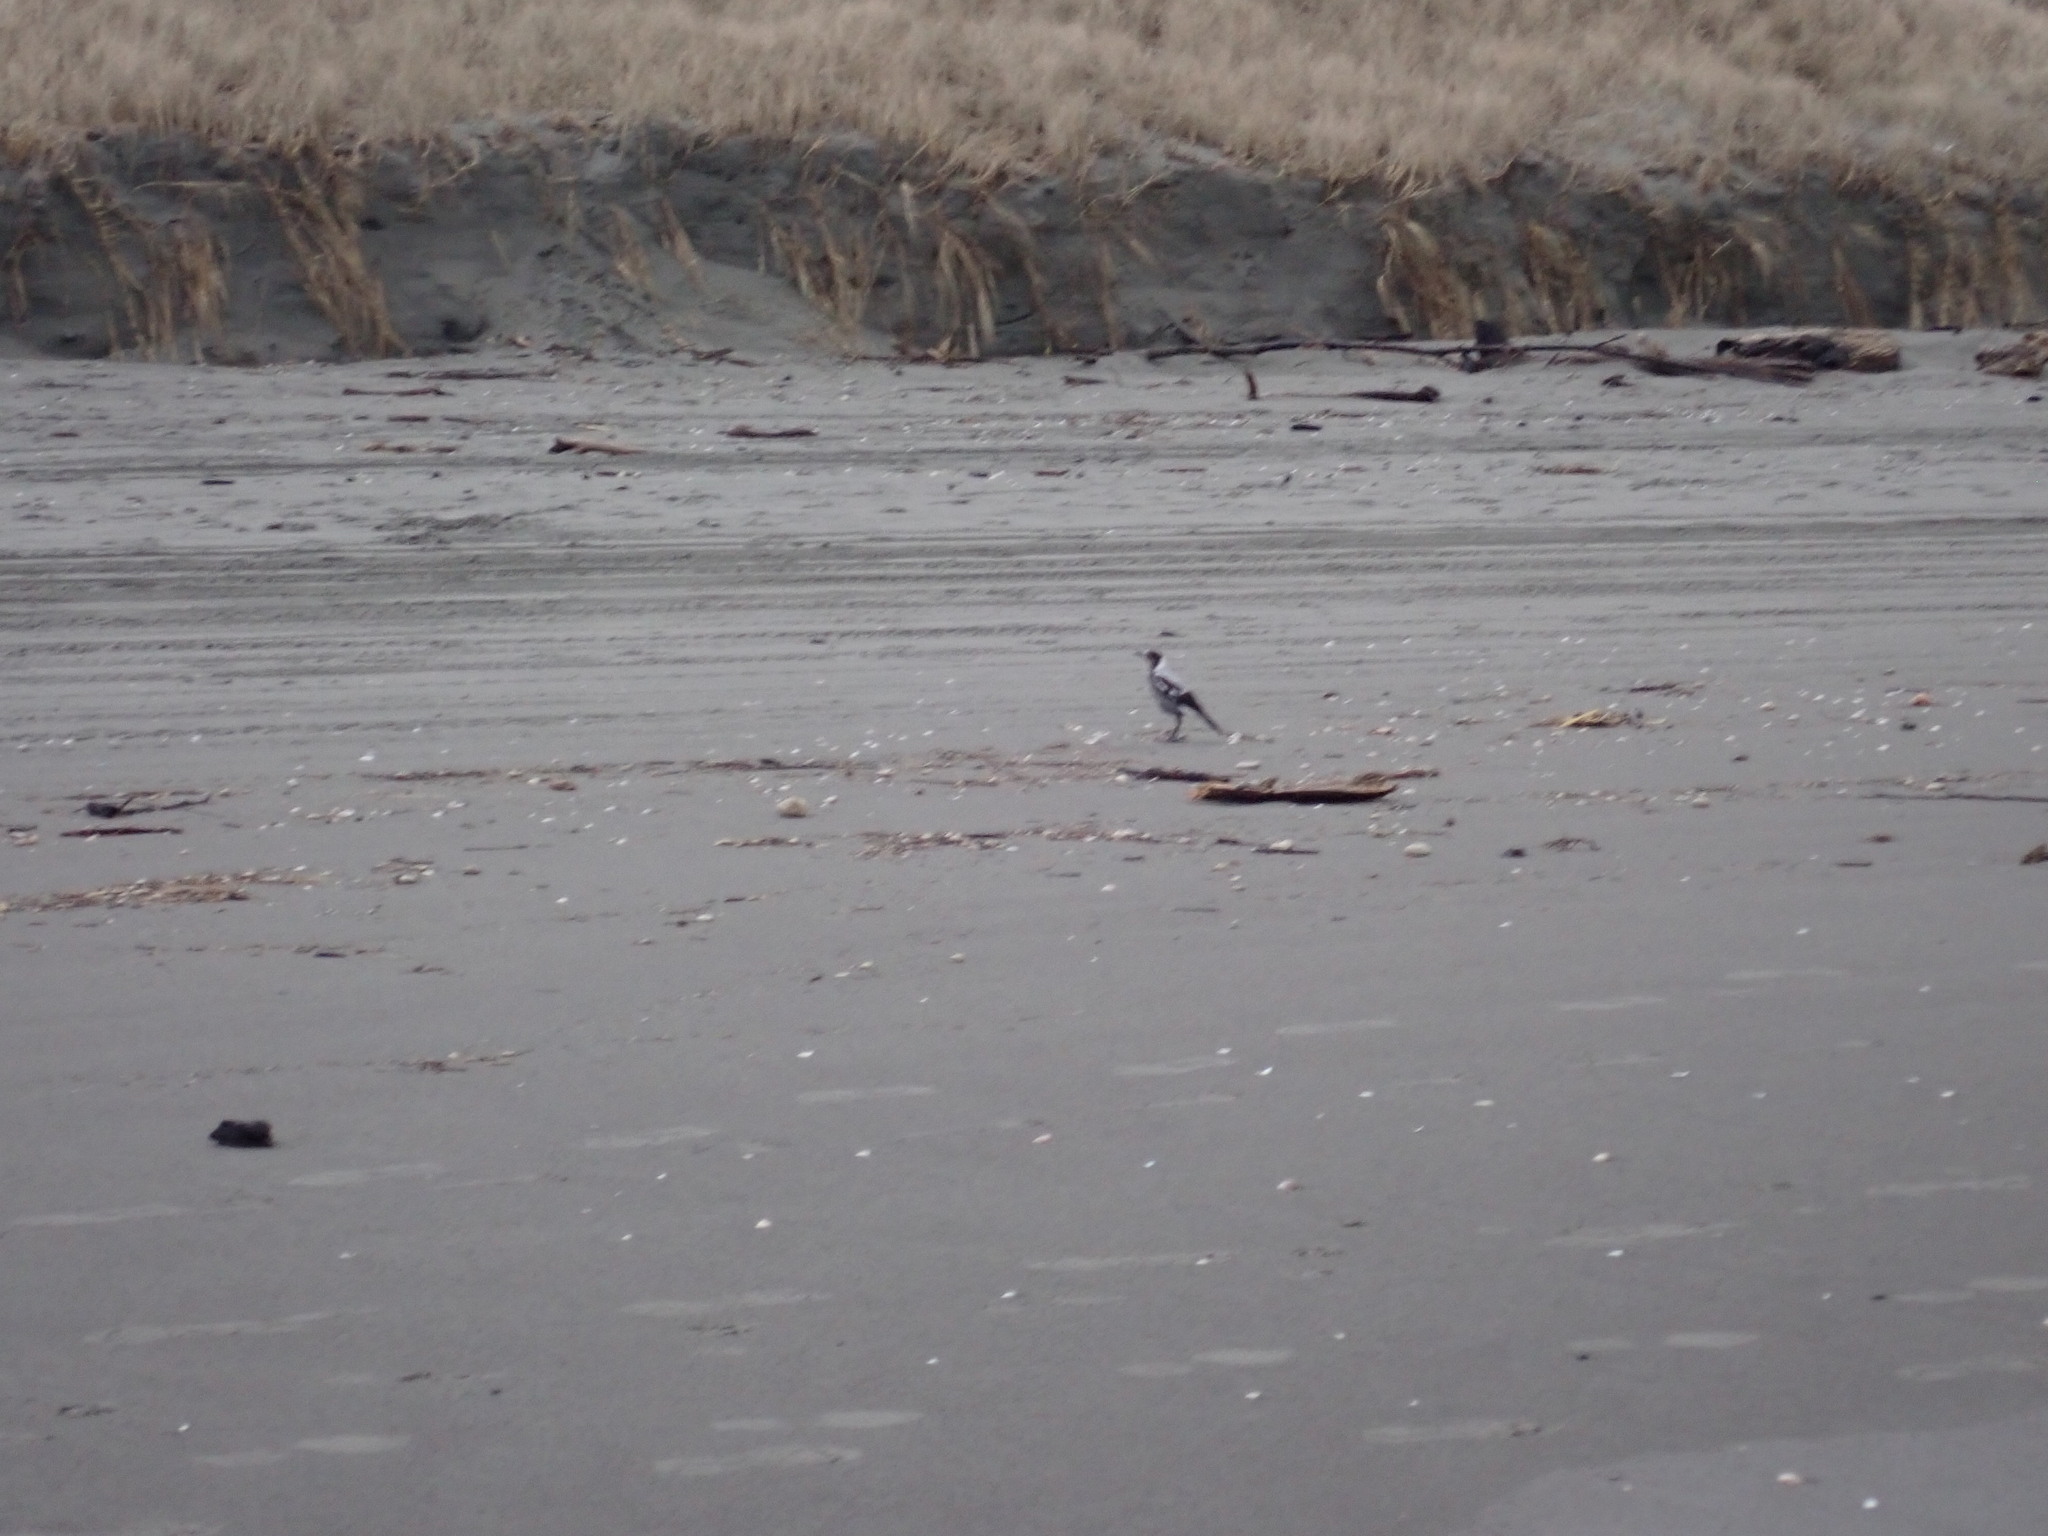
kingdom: Animalia
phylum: Chordata
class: Aves
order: Passeriformes
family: Cracticidae
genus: Gymnorhina
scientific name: Gymnorhina tibicen
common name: Australian magpie
